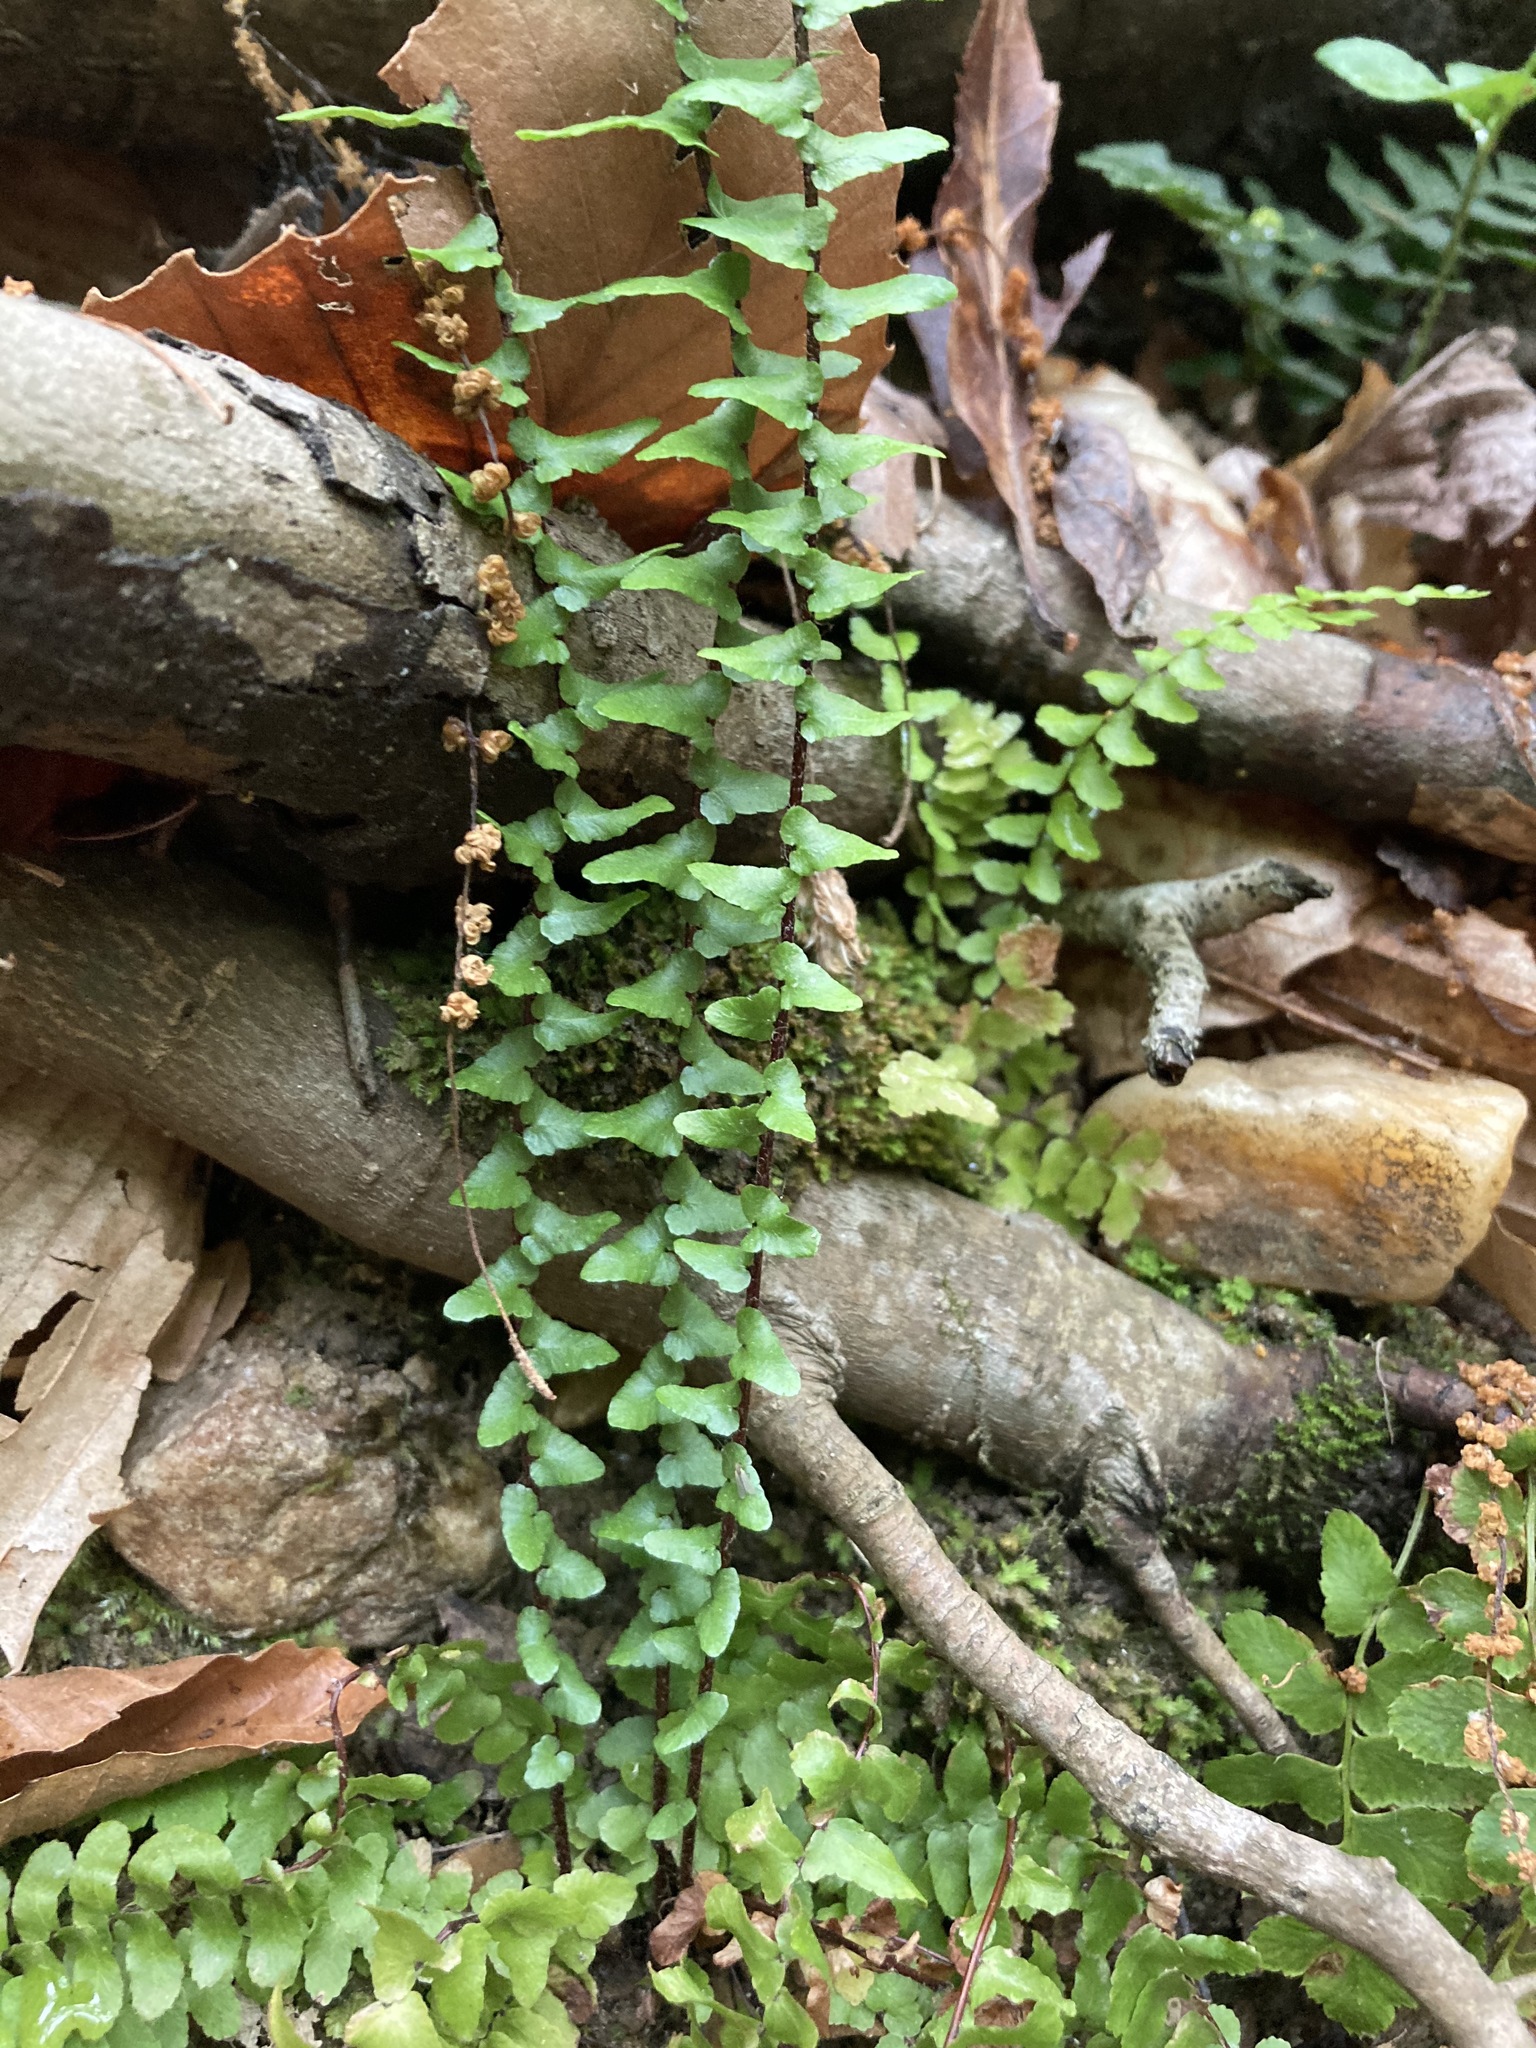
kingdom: Plantae
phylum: Tracheophyta
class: Polypodiopsida
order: Polypodiales
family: Aspleniaceae
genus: Asplenium
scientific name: Asplenium platyneuron
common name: Ebony spleenwort
